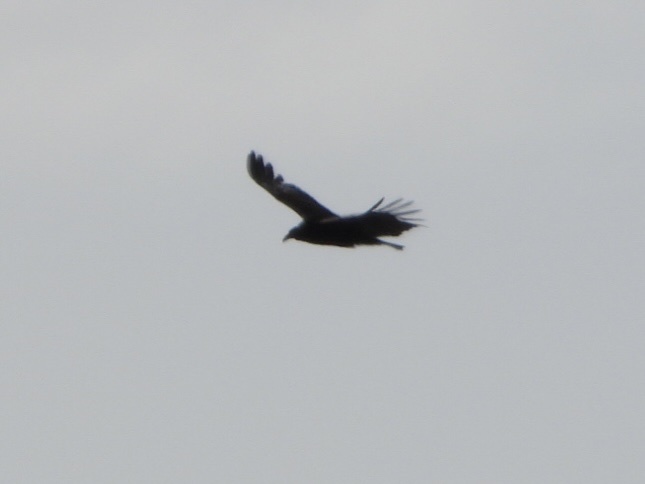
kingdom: Animalia
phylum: Chordata
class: Aves
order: Accipitriformes
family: Cathartidae
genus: Cathartes
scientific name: Cathartes aura
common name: Turkey vulture
